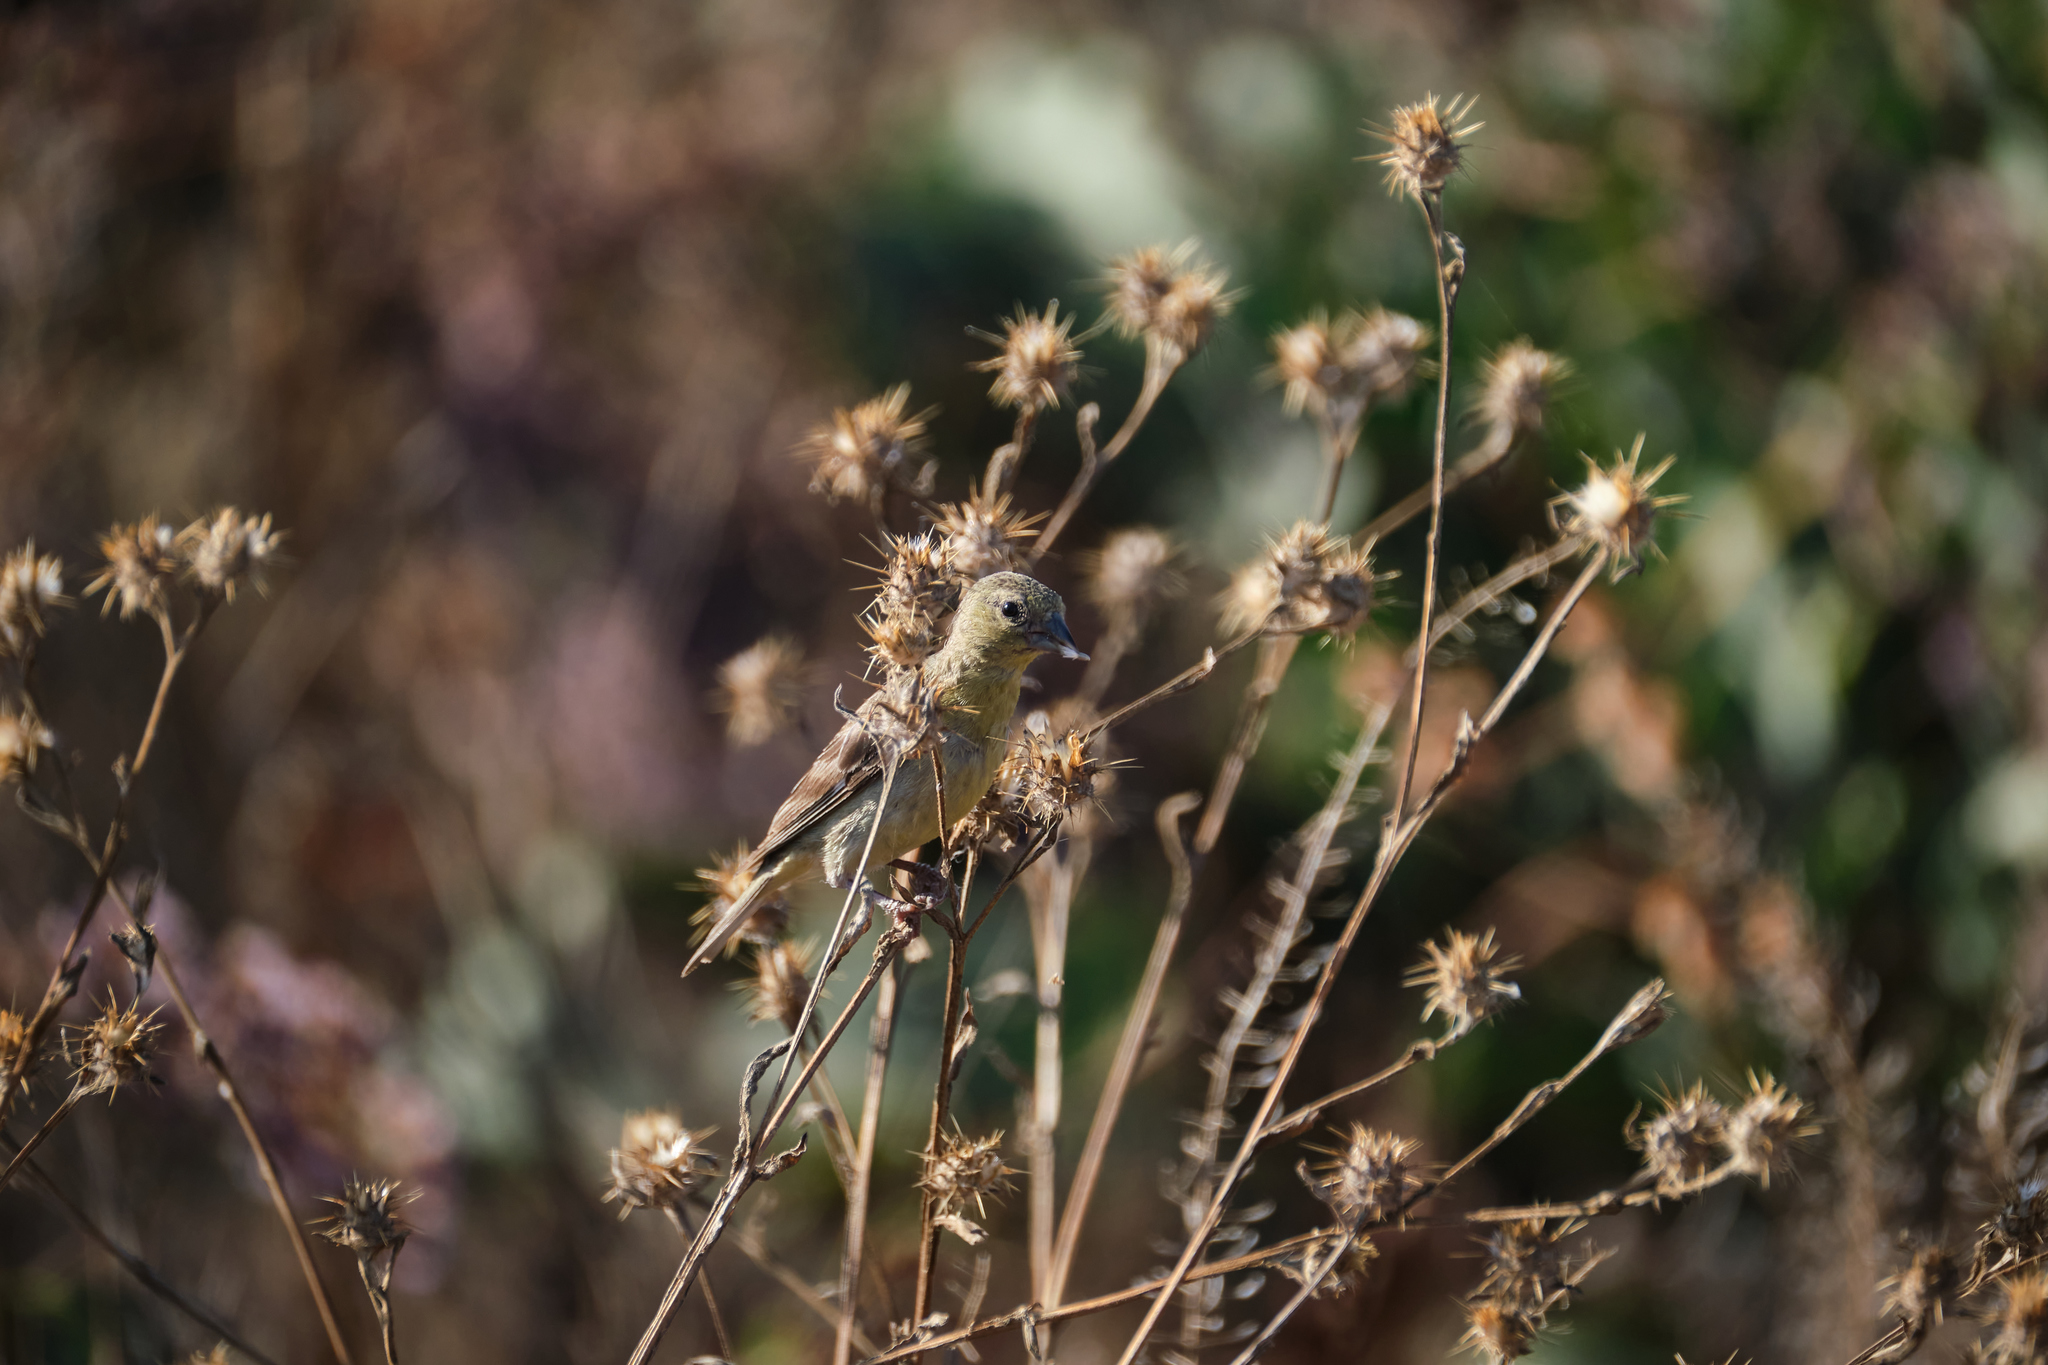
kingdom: Animalia
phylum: Chordata
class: Aves
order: Passeriformes
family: Fringillidae
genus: Spinus
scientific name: Spinus psaltria
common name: Lesser goldfinch
